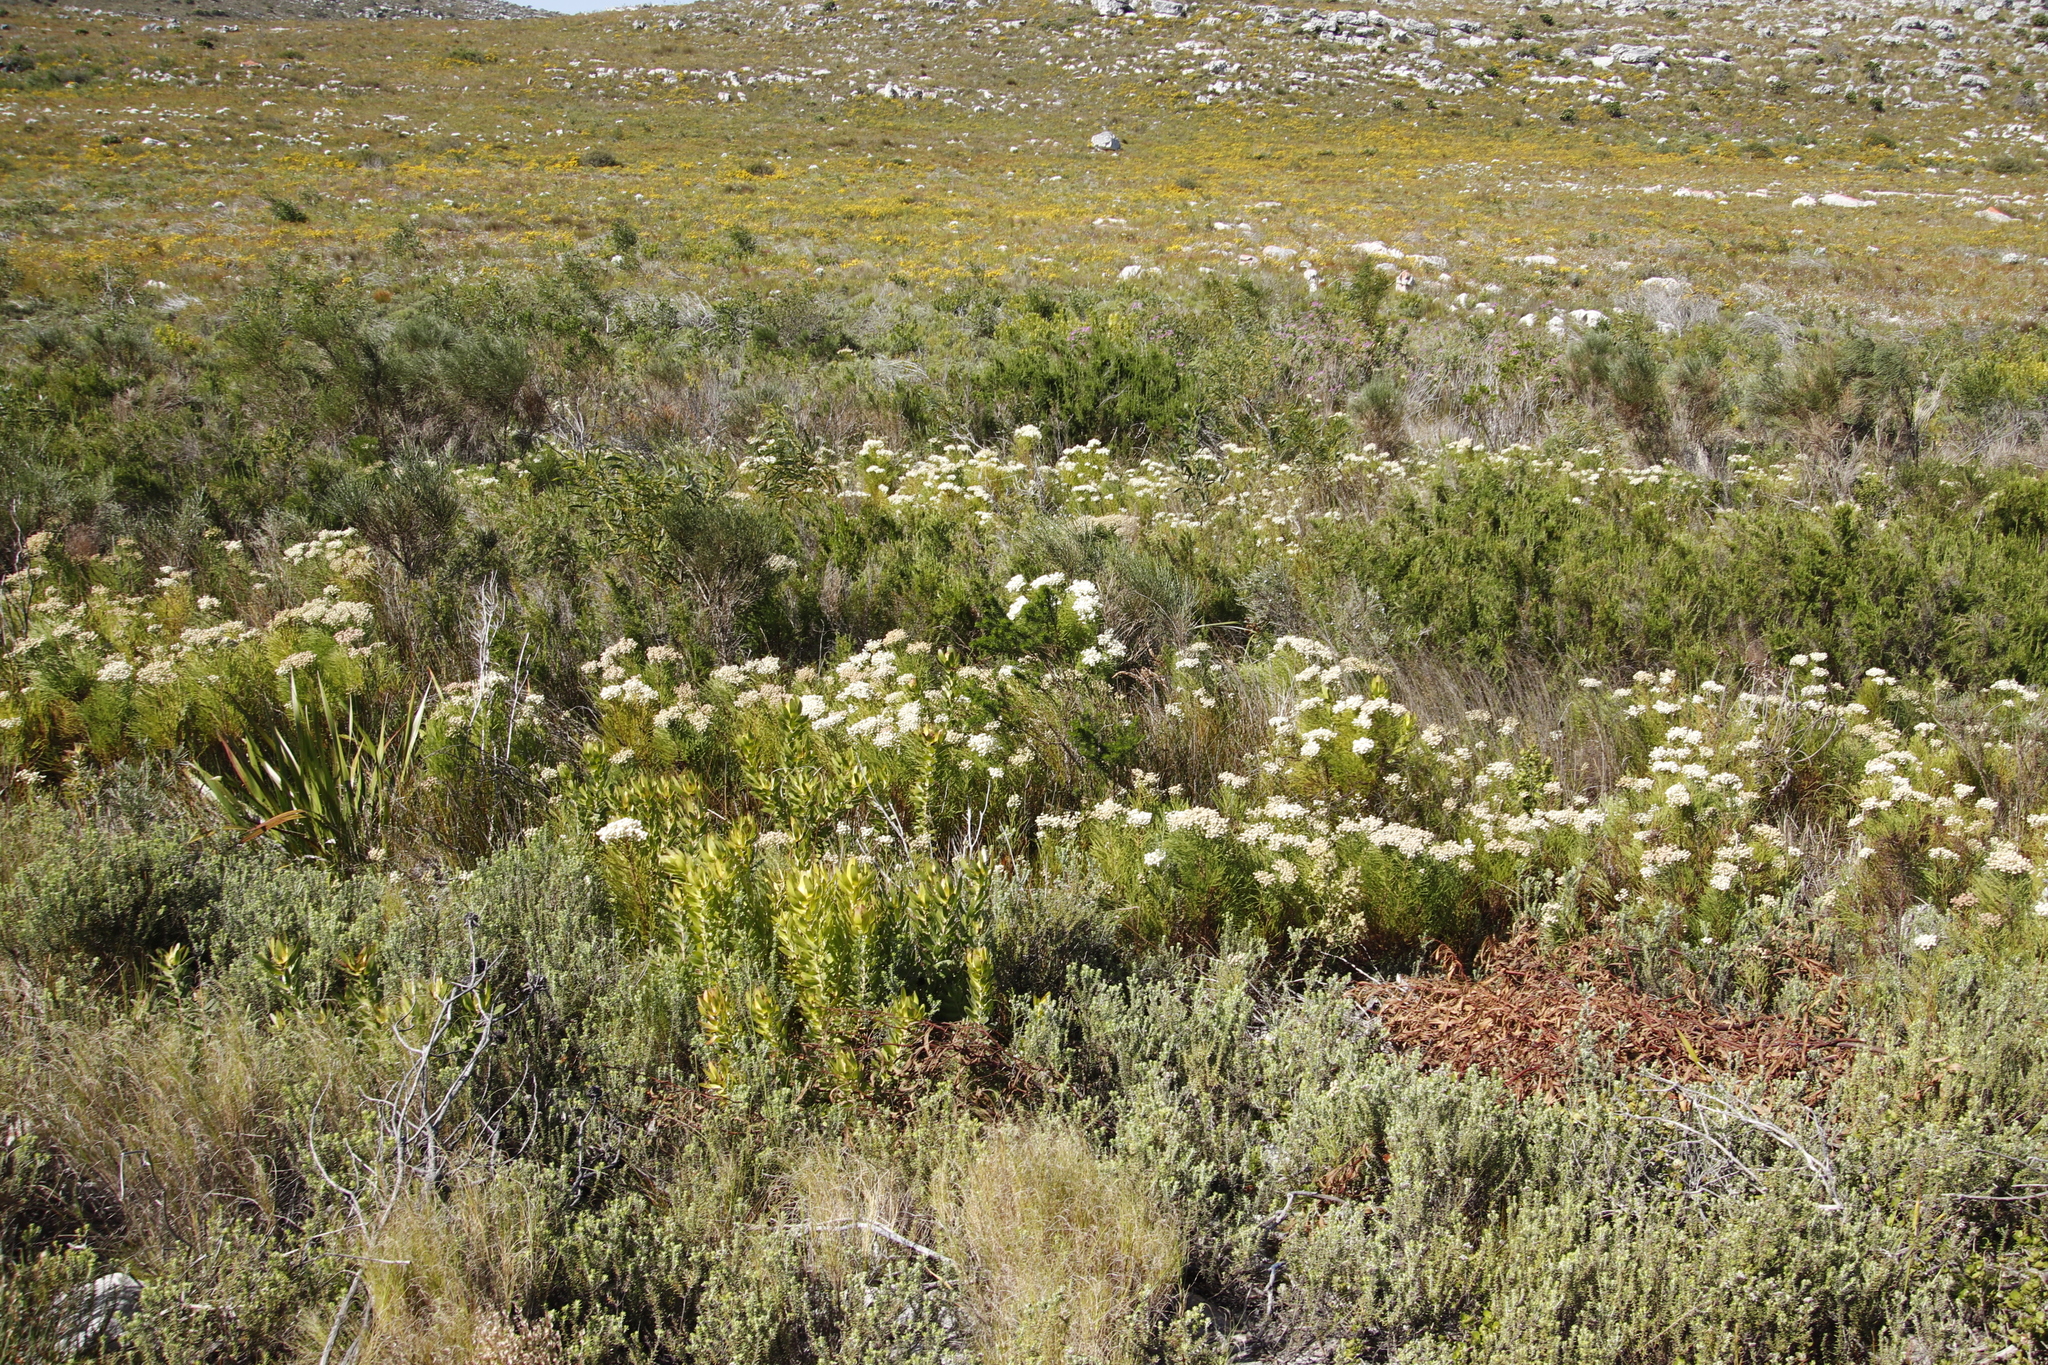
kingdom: Plantae
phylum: Tracheophyta
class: Magnoliopsida
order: Proteales
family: Proteaceae
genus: Leucadendron
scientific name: Leucadendron laureolum
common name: Golden sunshinebush
